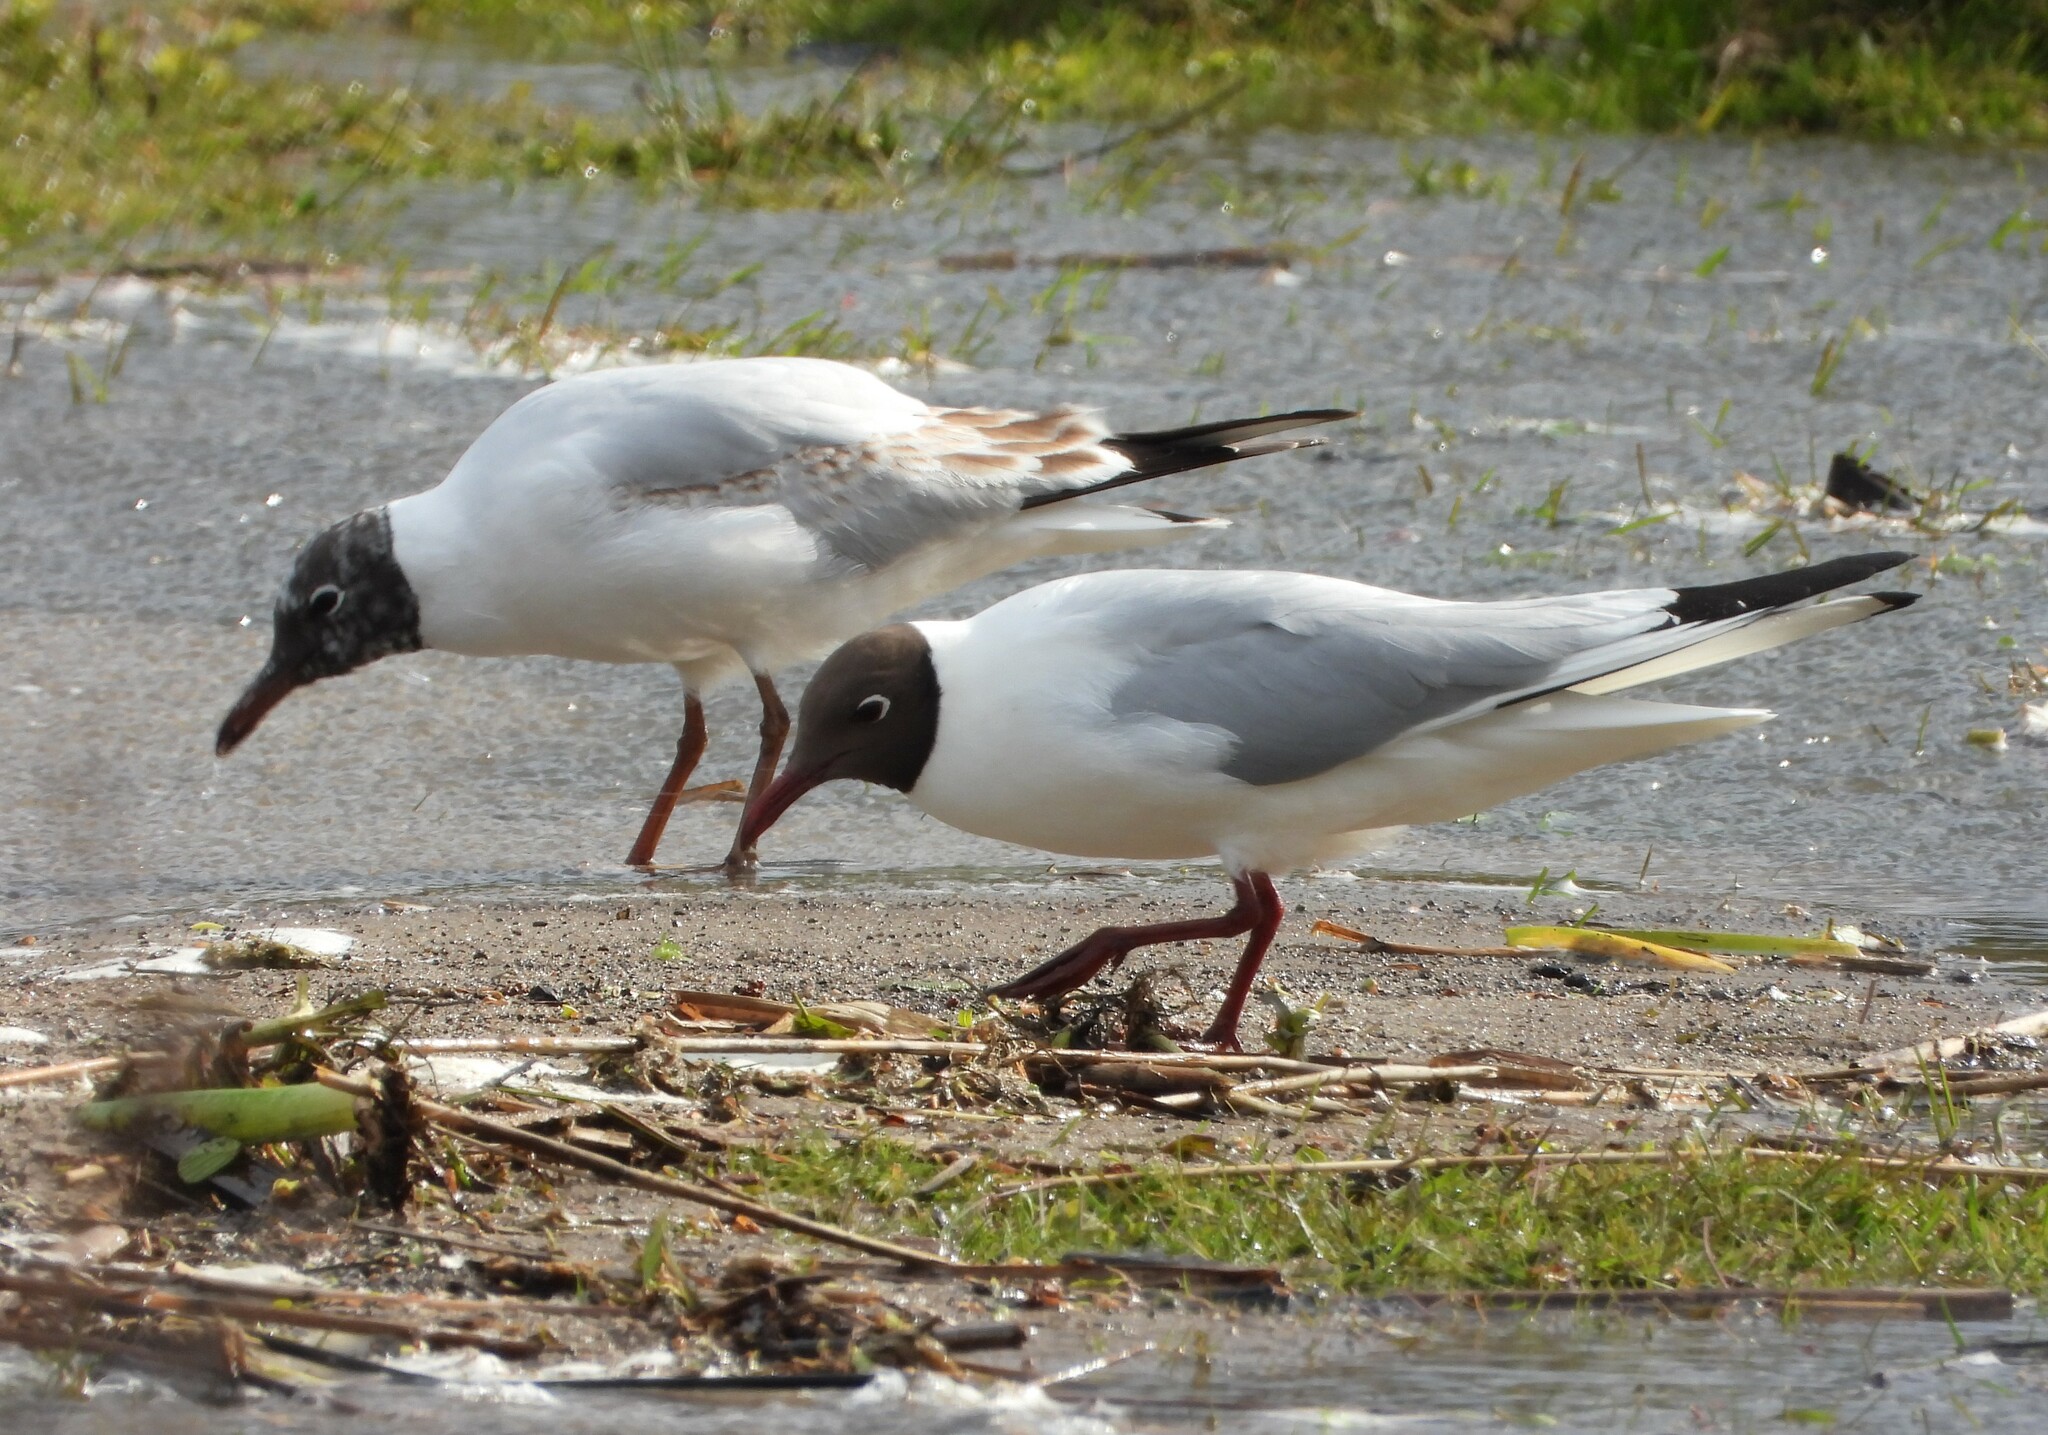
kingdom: Animalia
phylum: Chordata
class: Aves
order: Charadriiformes
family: Laridae
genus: Chroicocephalus
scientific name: Chroicocephalus ridibundus
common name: Black-headed gull
